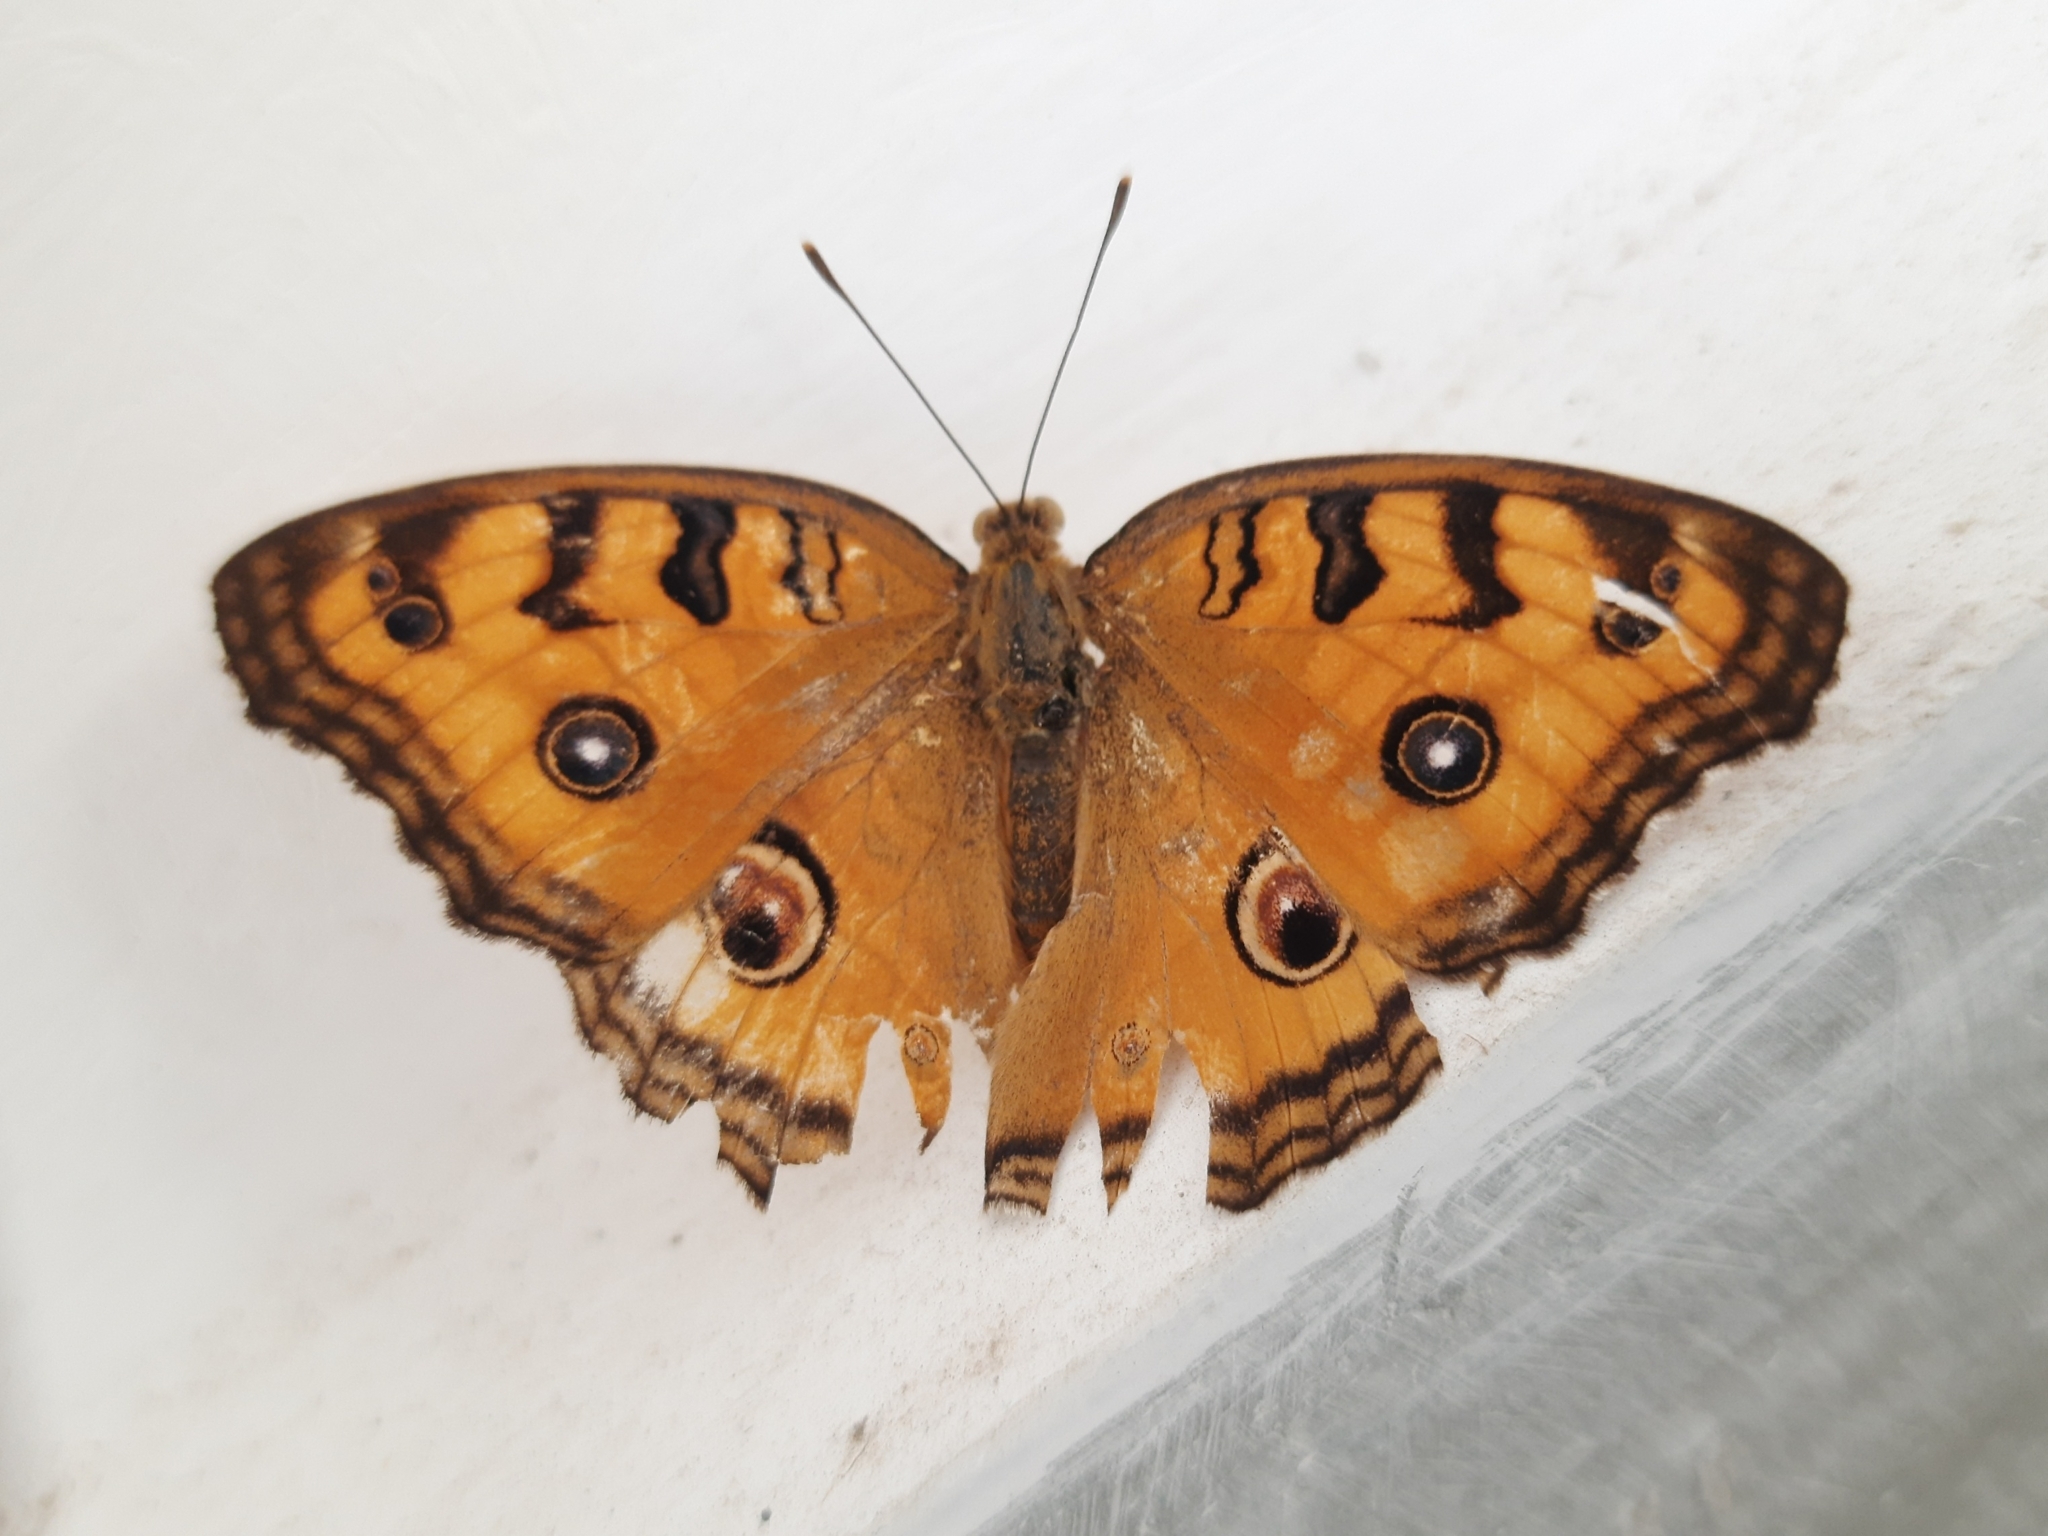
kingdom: Animalia
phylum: Arthropoda
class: Insecta
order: Lepidoptera
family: Nymphalidae
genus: Junonia
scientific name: Junonia almana
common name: Peacock pansy
